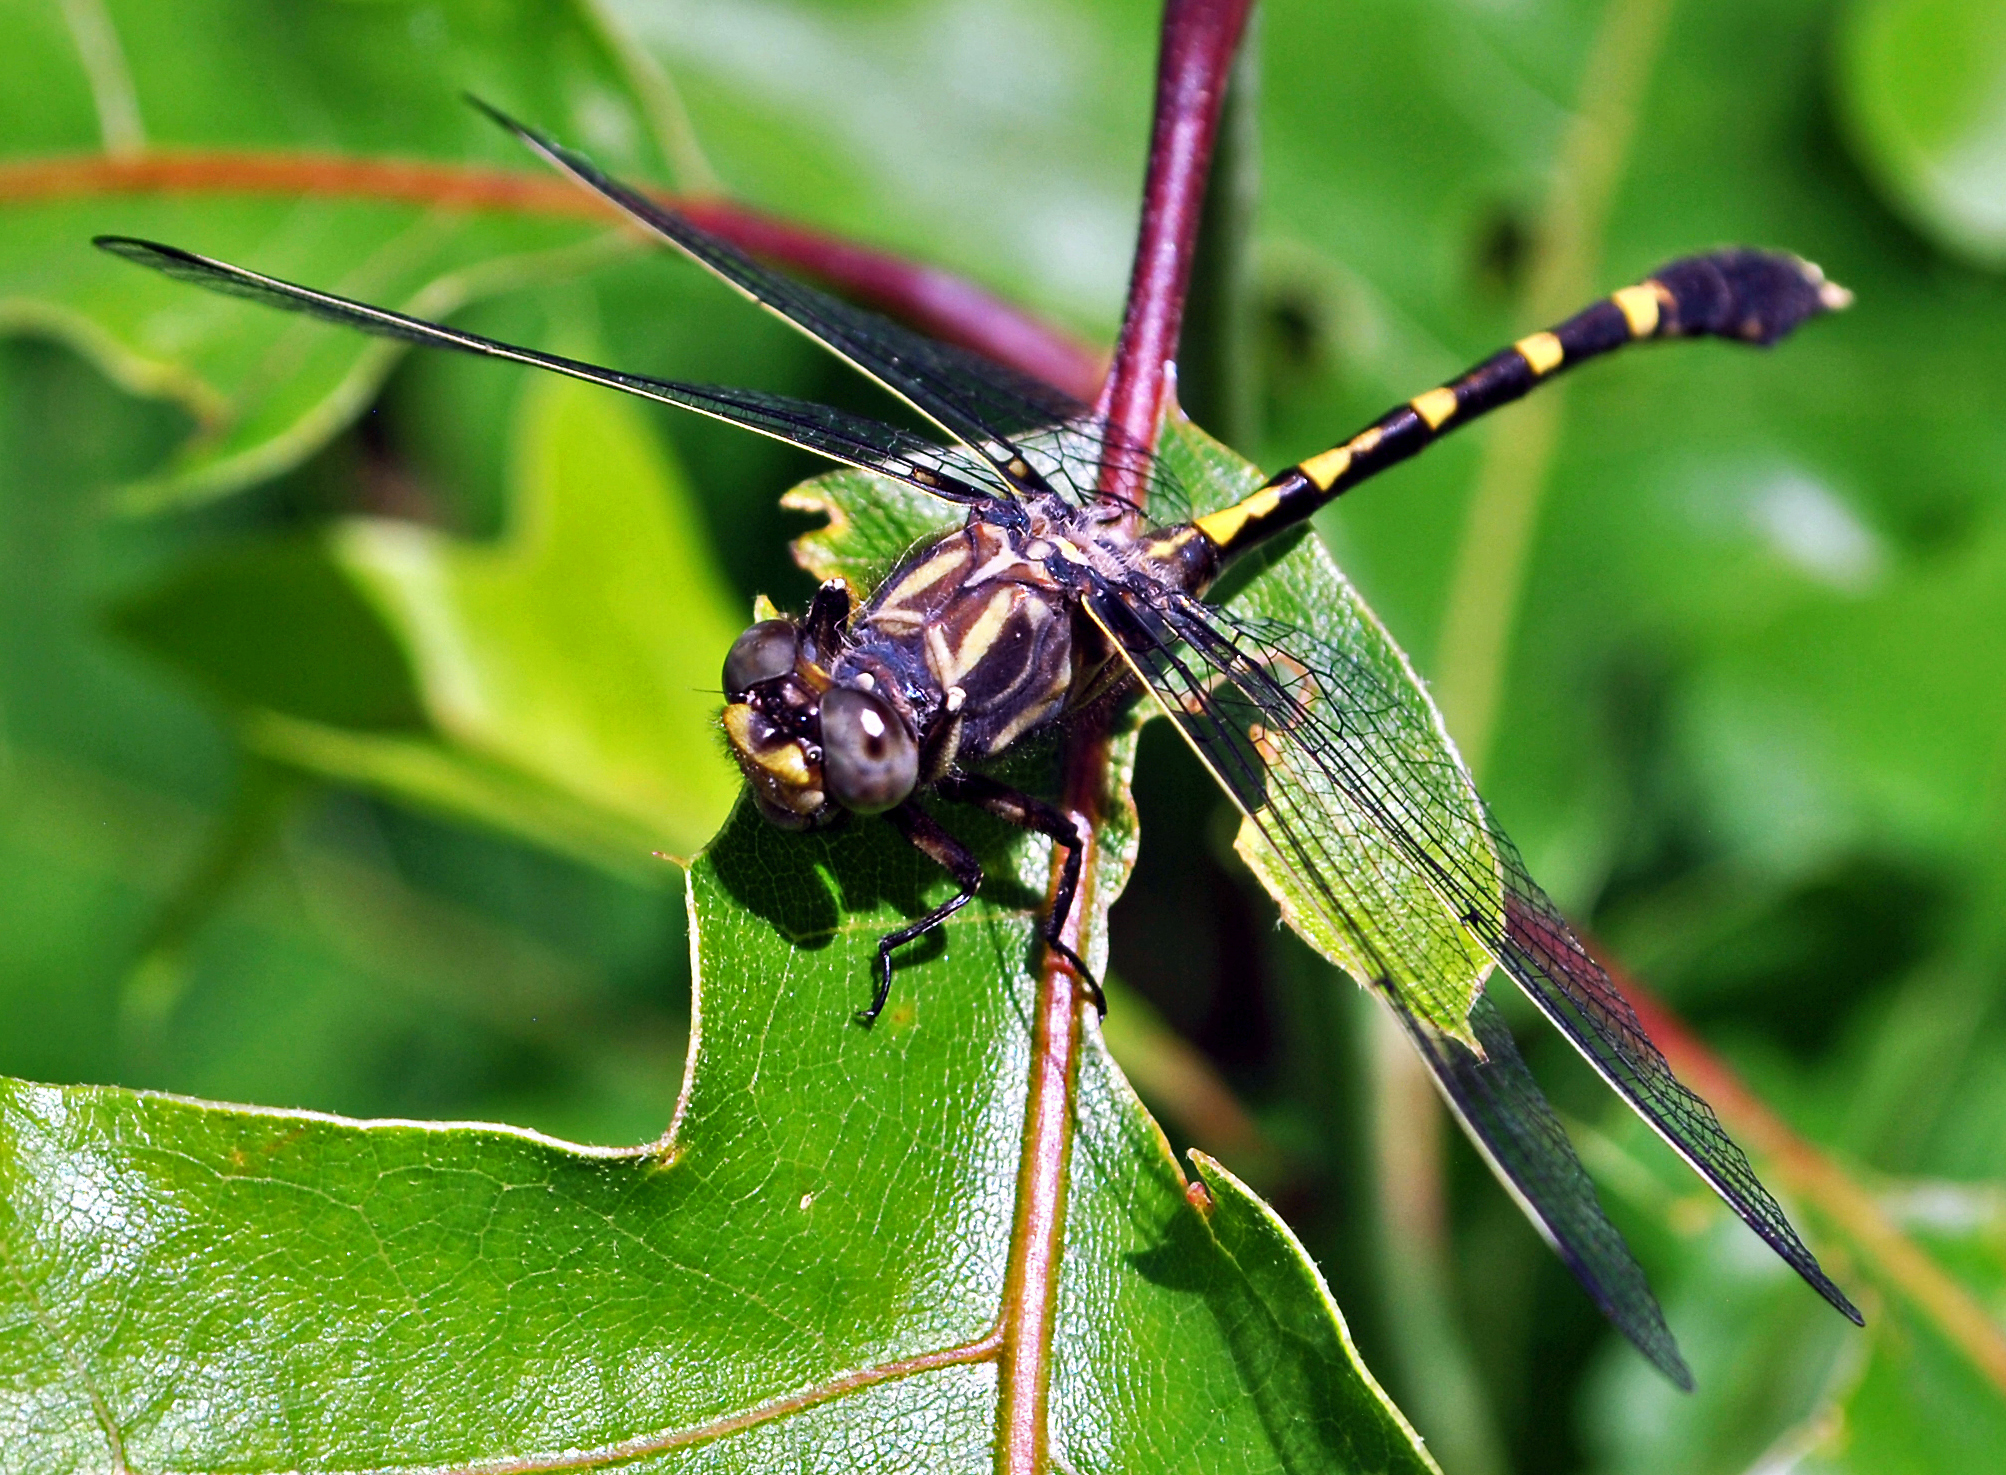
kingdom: Animalia
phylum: Arthropoda
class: Insecta
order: Odonata
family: Gomphidae
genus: Progomphus
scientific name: Progomphus obscurus
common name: Common sanddragon
